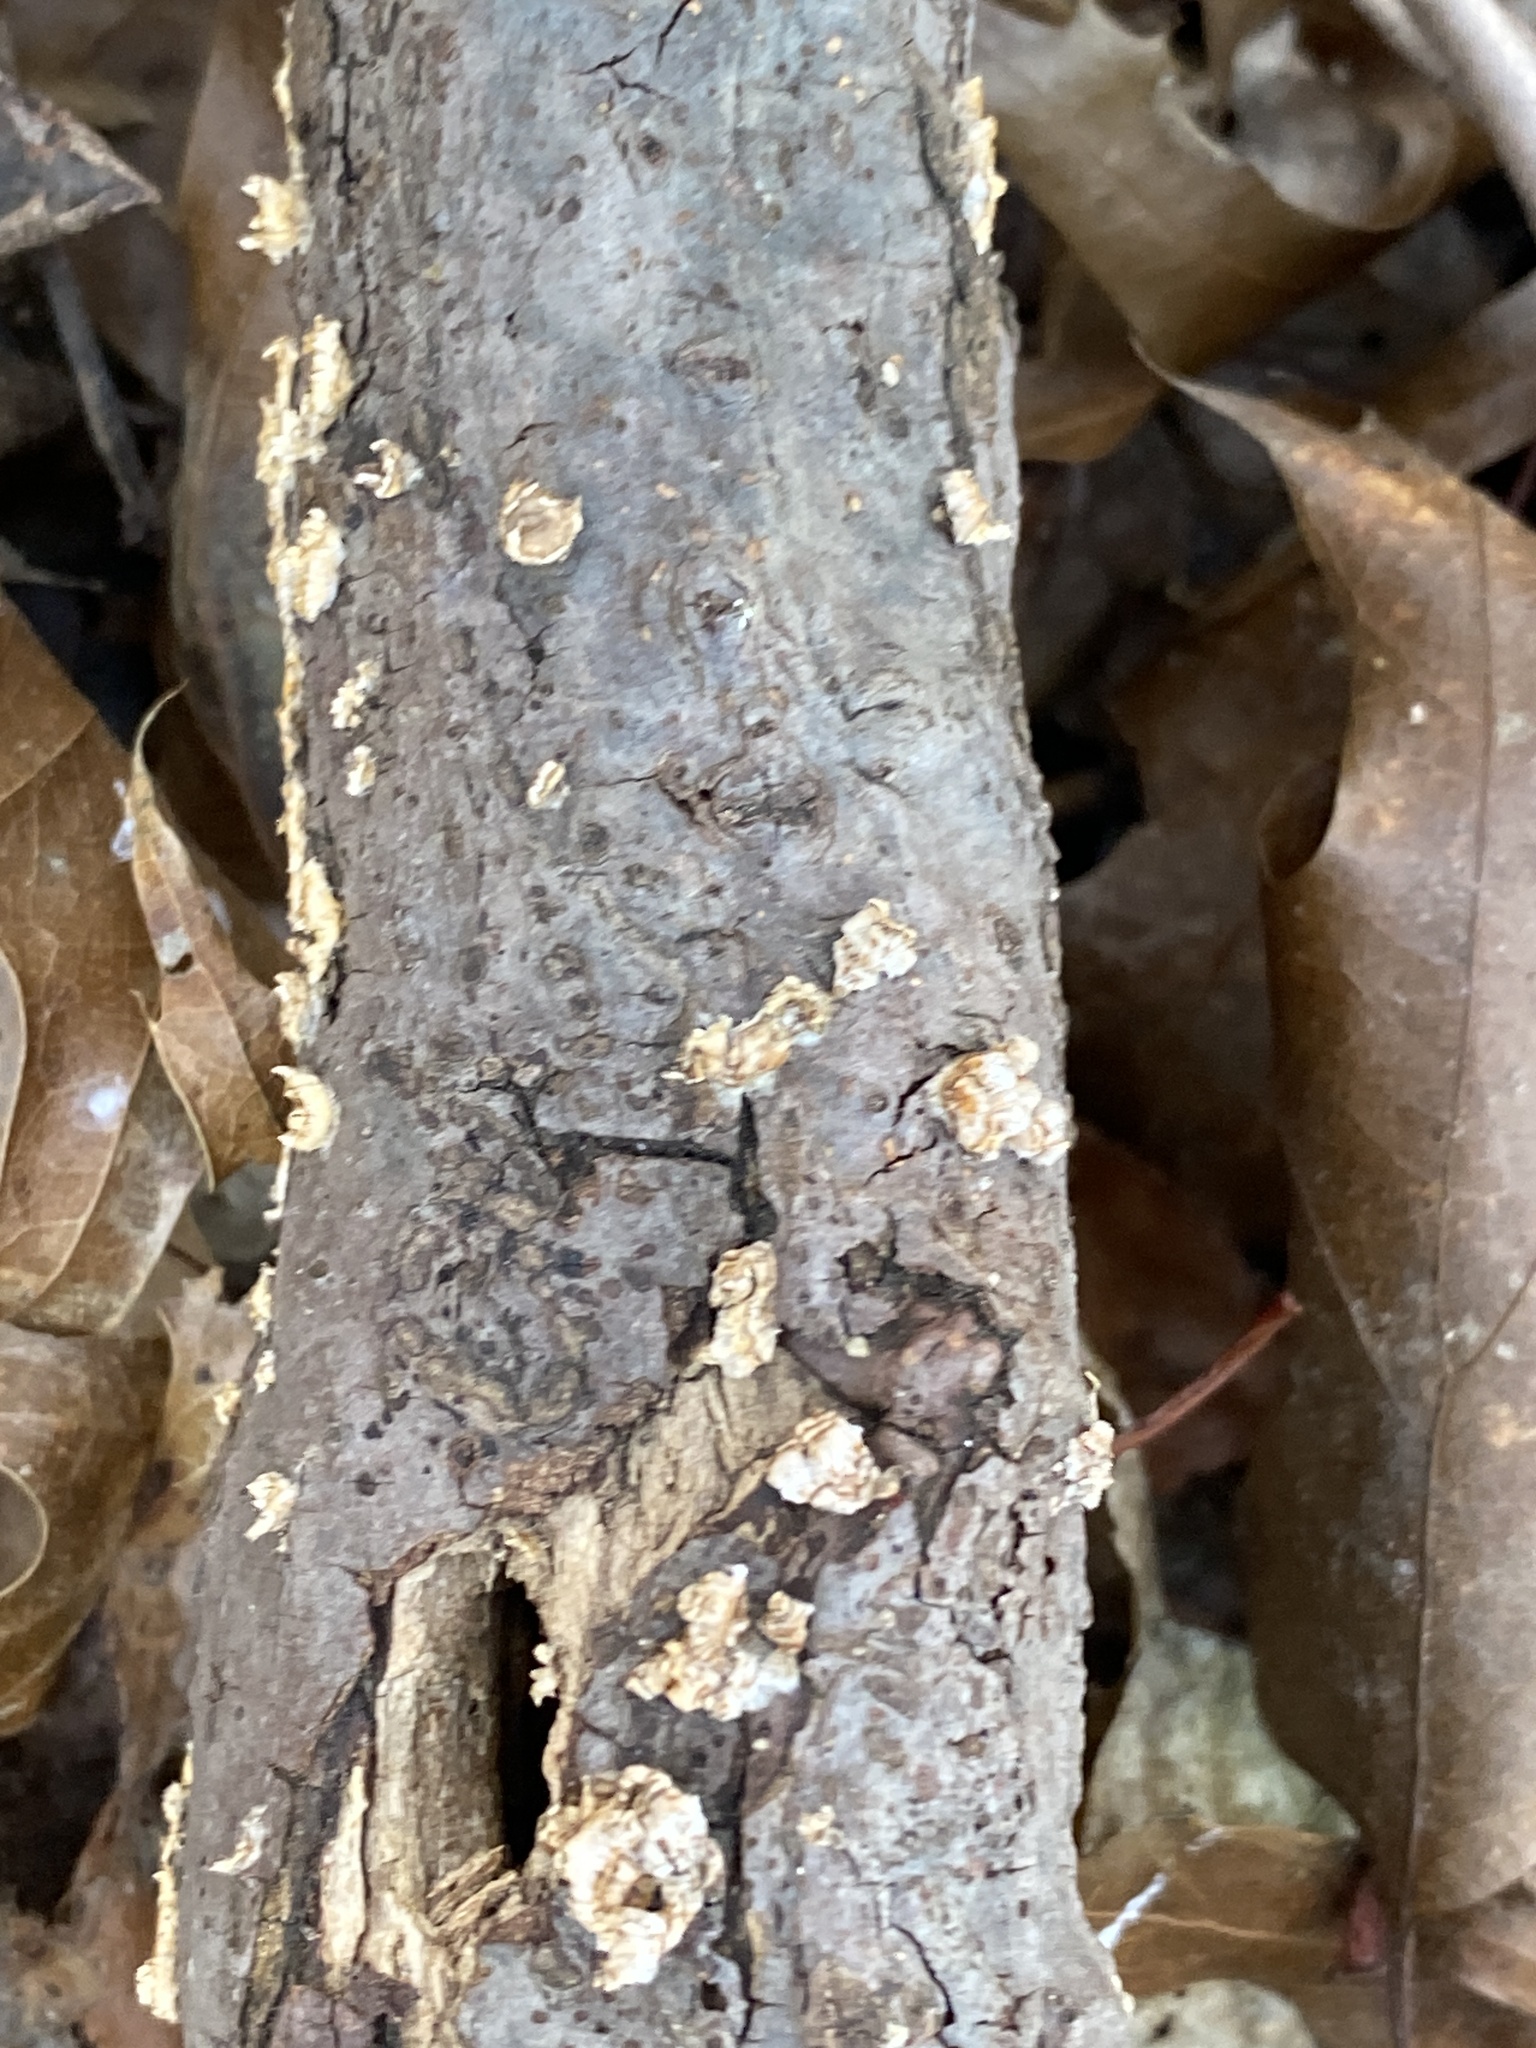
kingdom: Fungi
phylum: Basidiomycota
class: Agaricomycetes
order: Russulales
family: Stereaceae
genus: Stereum
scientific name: Stereum complicatum
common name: Crowded parchment
